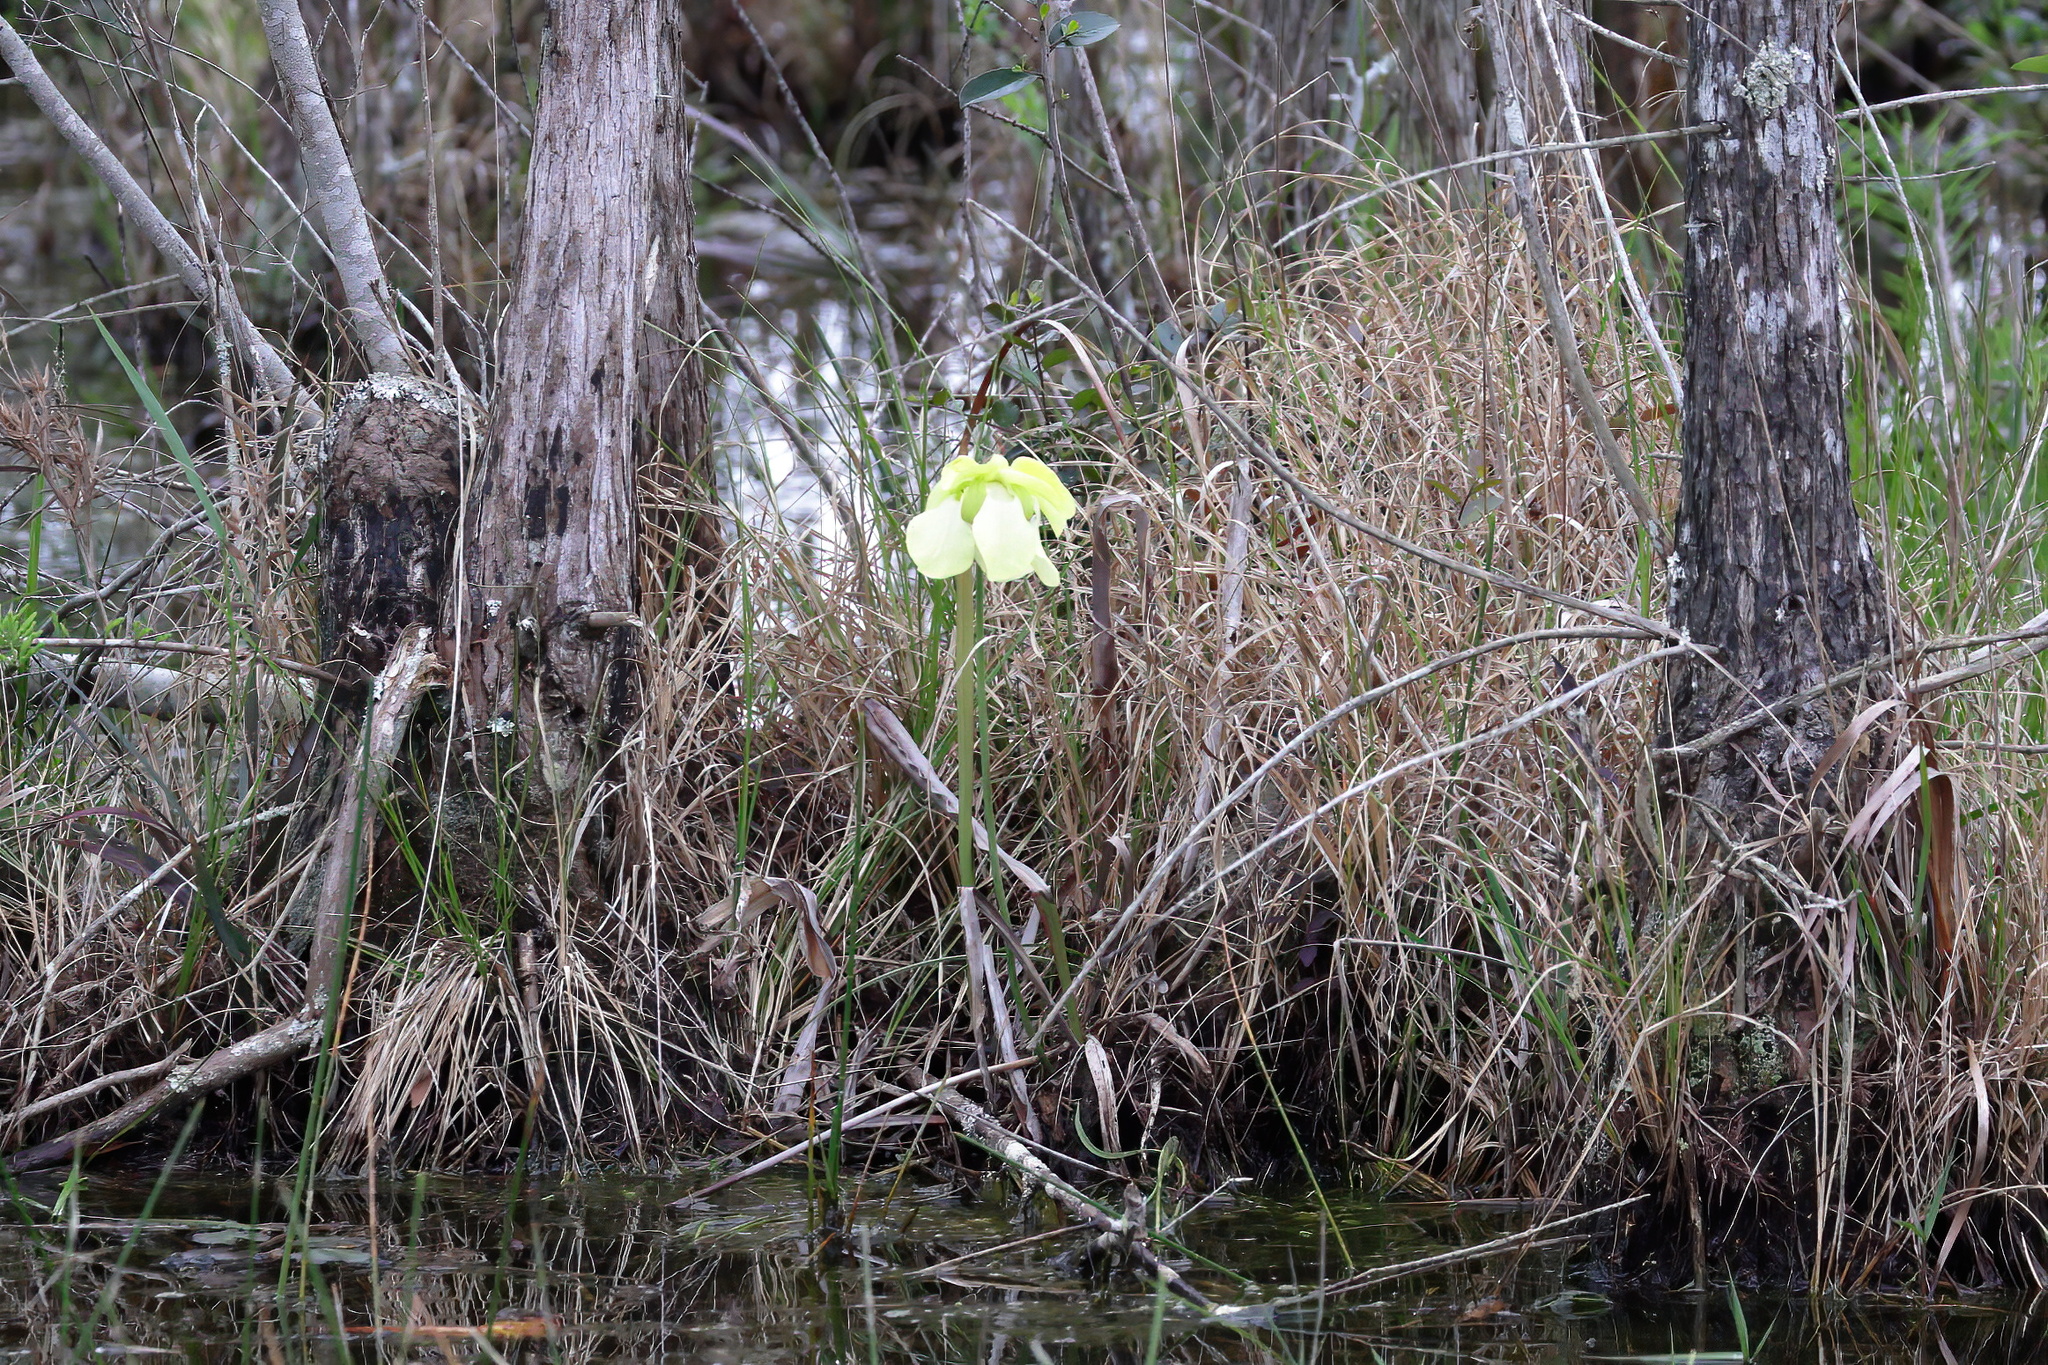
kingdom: Plantae
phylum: Tracheophyta
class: Magnoliopsida
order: Ericales
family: Sarraceniaceae
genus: Sarracenia
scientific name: Sarracenia alata
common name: Yellow trumpets
